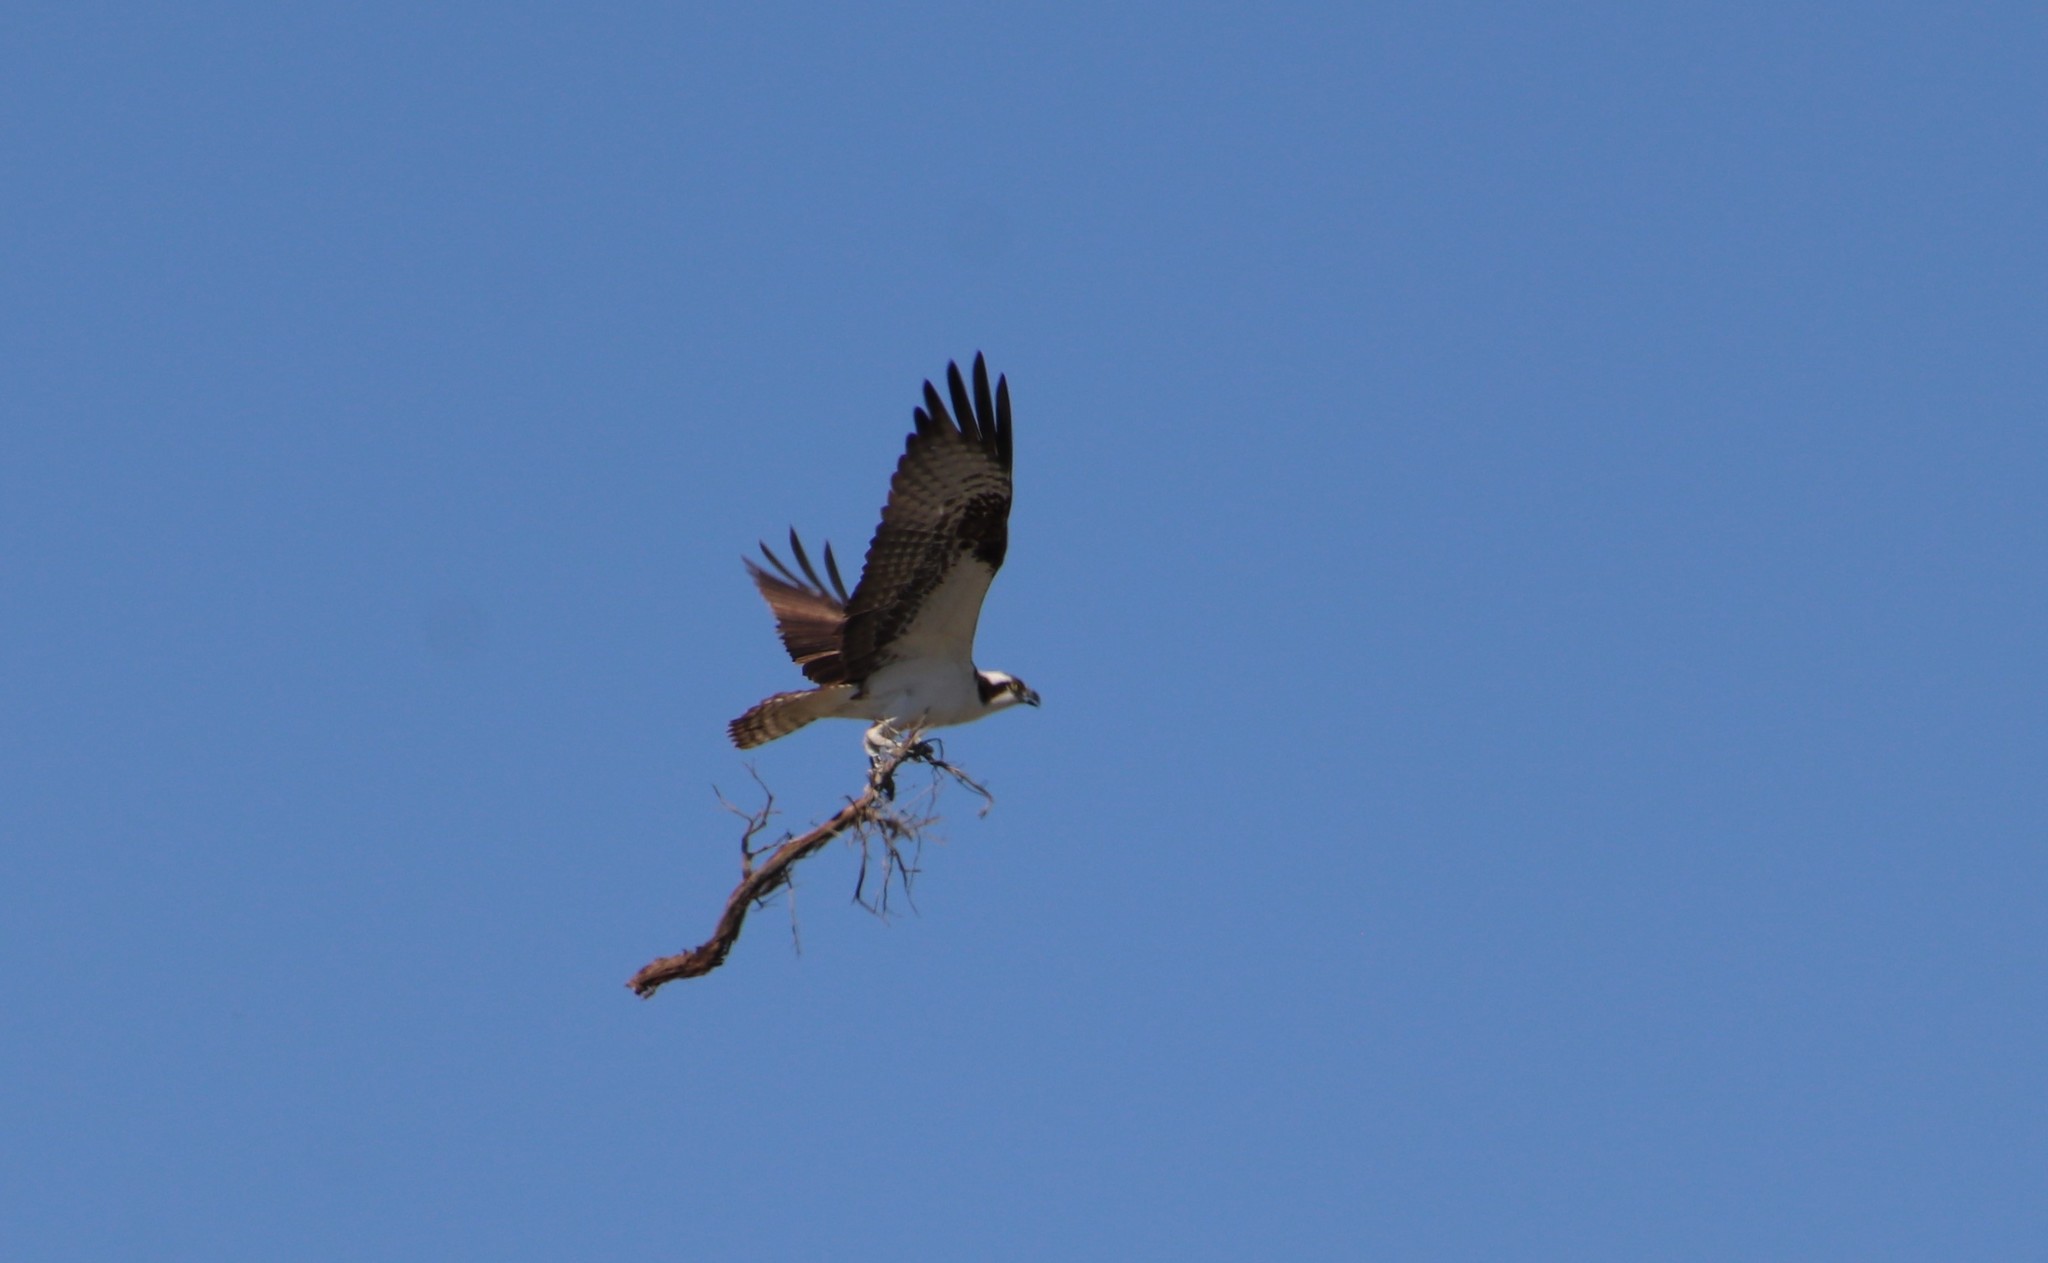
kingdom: Animalia
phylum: Chordata
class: Aves
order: Accipitriformes
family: Pandionidae
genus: Pandion
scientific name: Pandion haliaetus
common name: Osprey
